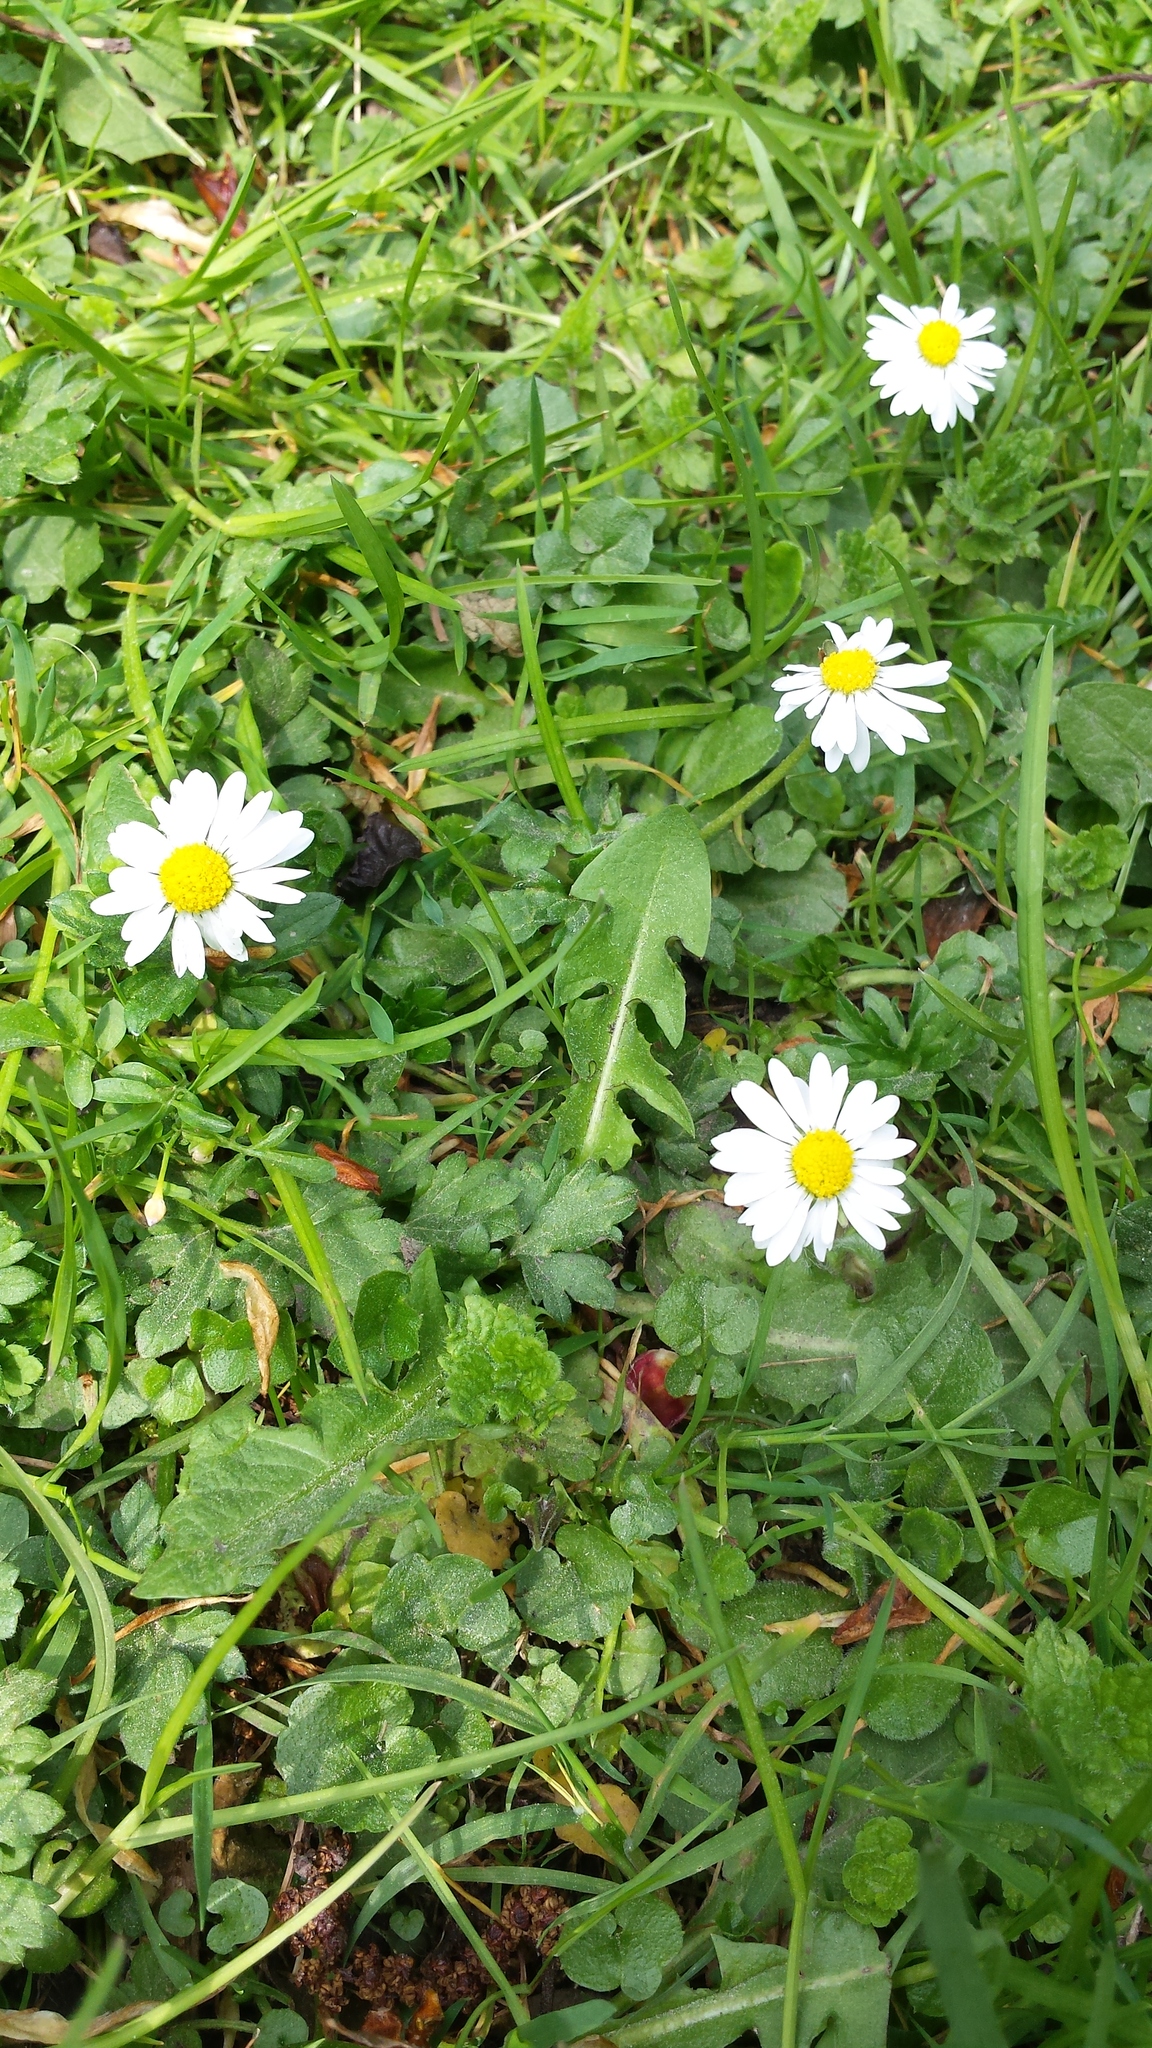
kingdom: Plantae
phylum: Tracheophyta
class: Magnoliopsida
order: Asterales
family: Asteraceae
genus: Bellis
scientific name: Bellis perennis
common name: Lawndaisy
